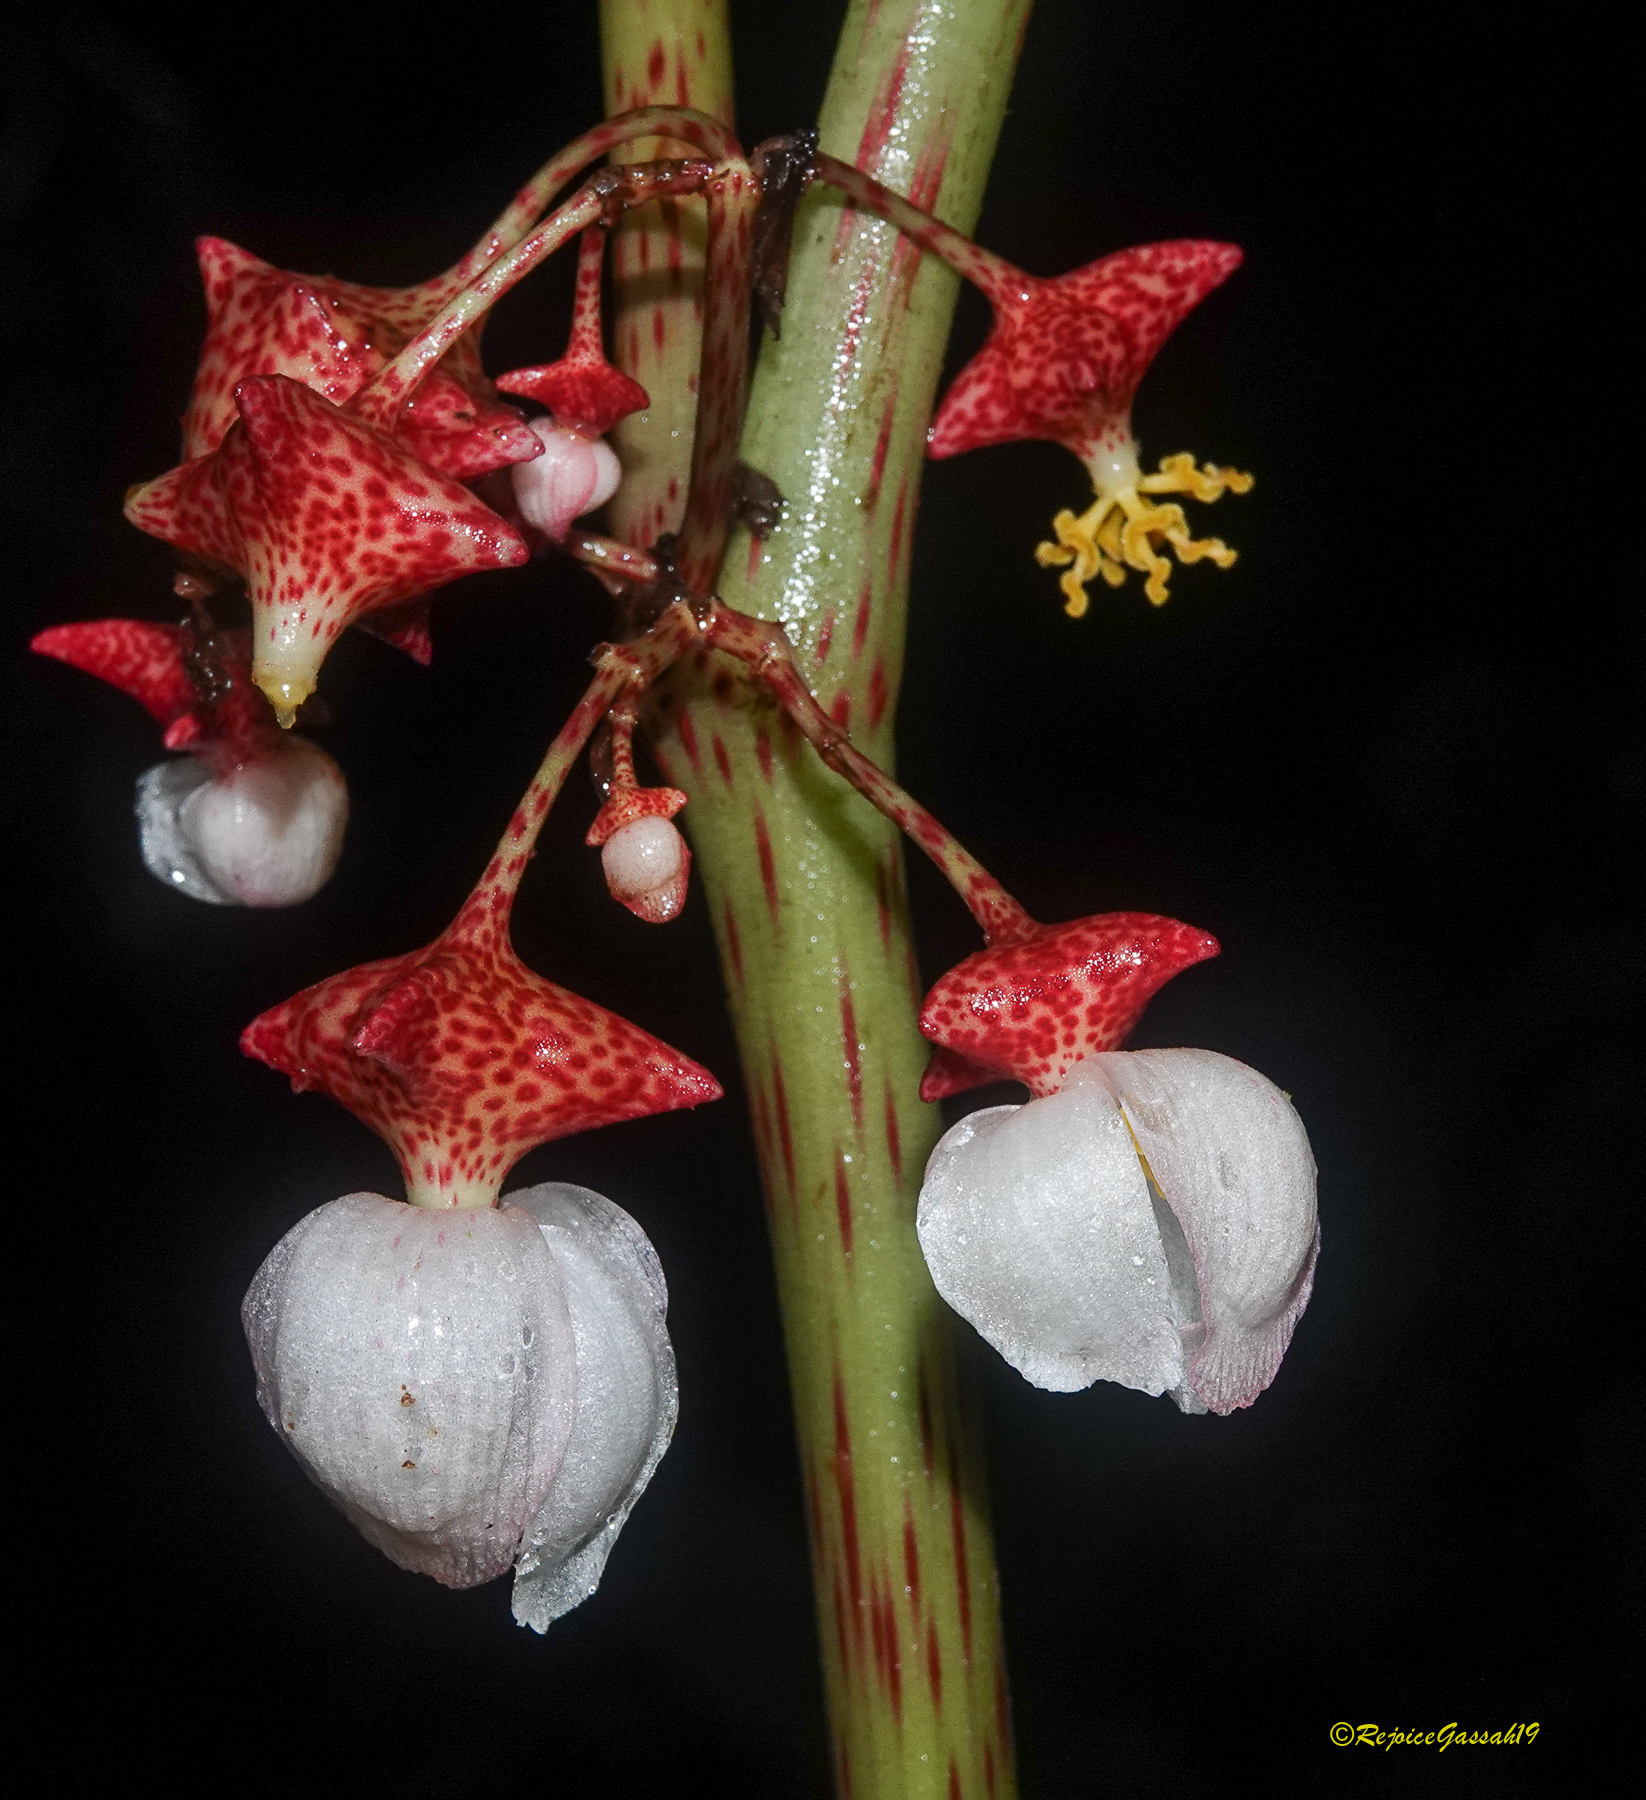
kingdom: Plantae
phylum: Tracheophyta
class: Magnoliopsida
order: Cucurbitales
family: Begoniaceae
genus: Begonia
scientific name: Begonia roxburghii
